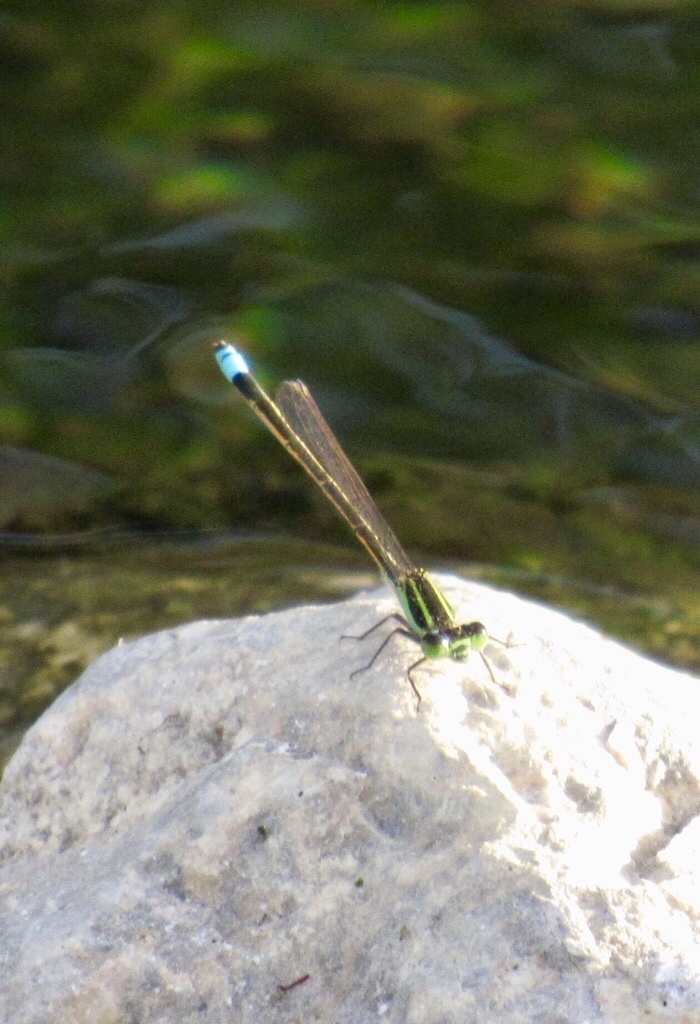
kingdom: Animalia
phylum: Arthropoda
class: Insecta
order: Odonata
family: Coenagrionidae
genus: Ischnura
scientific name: Ischnura ramburii
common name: Rambur's forktail
